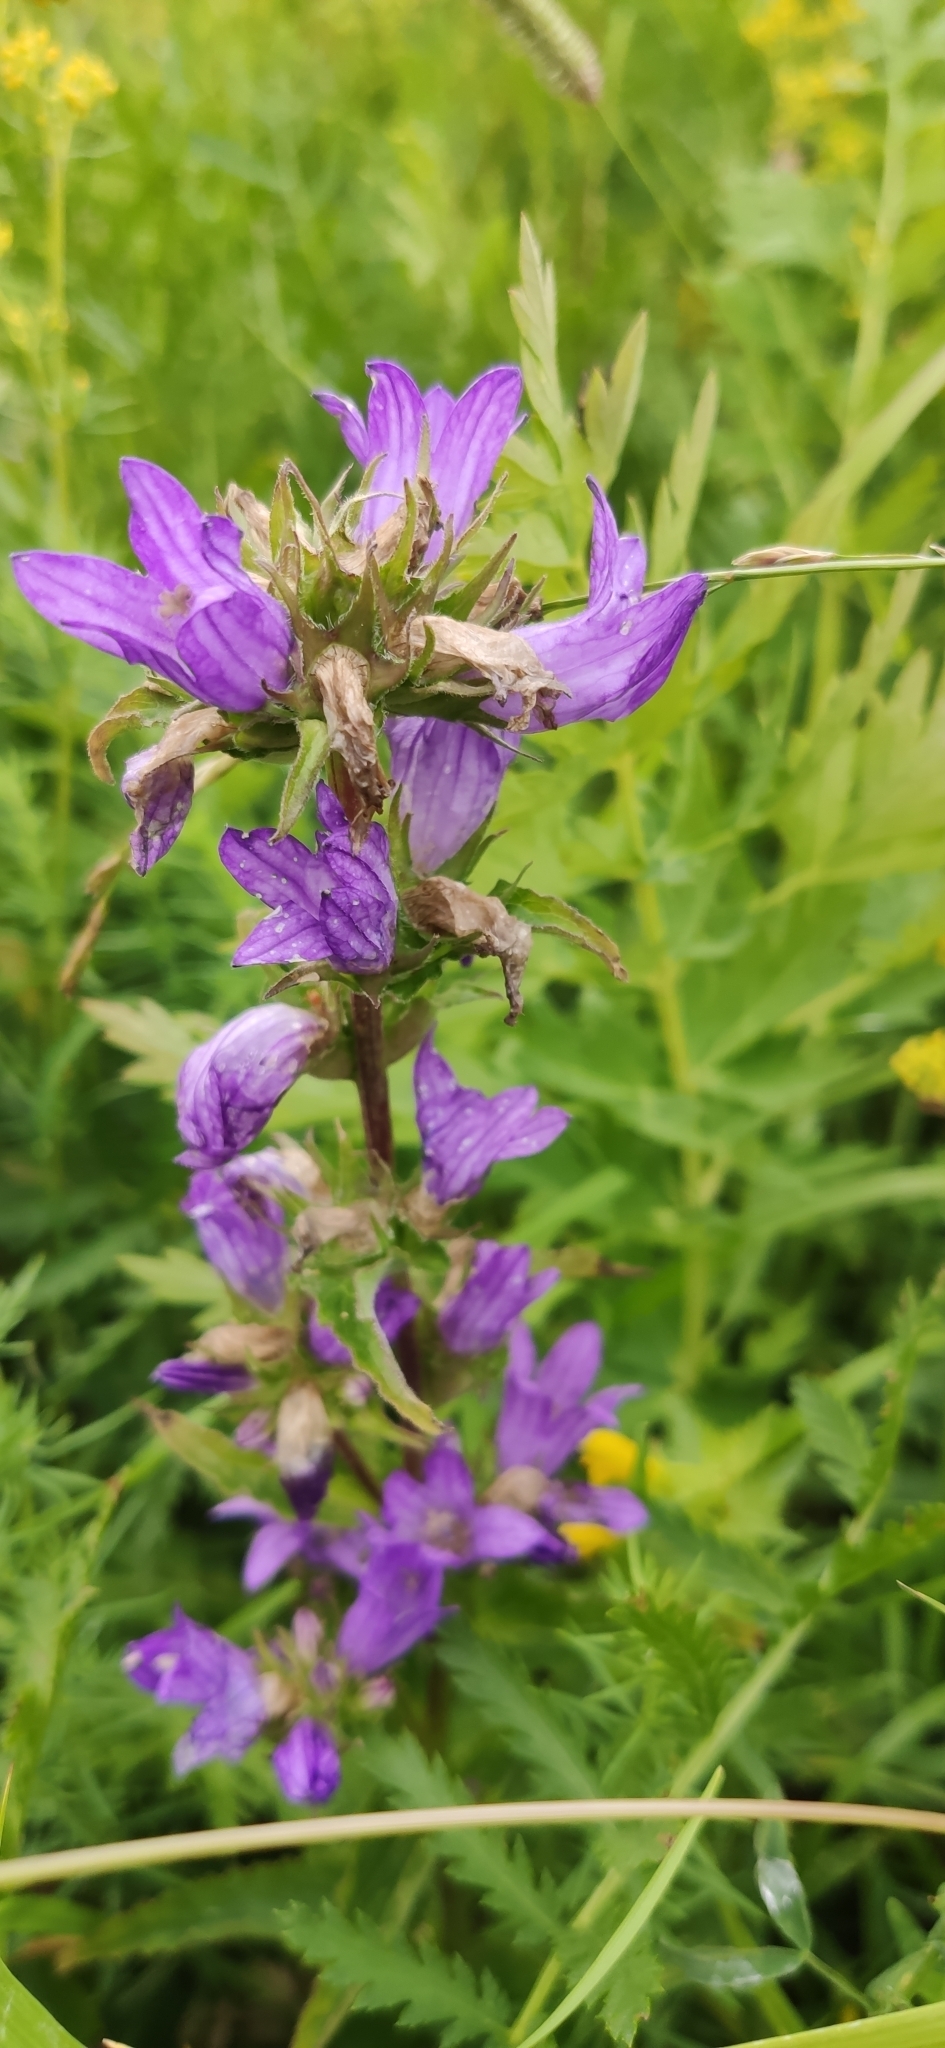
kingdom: Plantae
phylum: Tracheophyta
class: Magnoliopsida
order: Asterales
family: Campanulaceae
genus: Campanula
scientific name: Campanula glomerata
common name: Clustered bellflower
